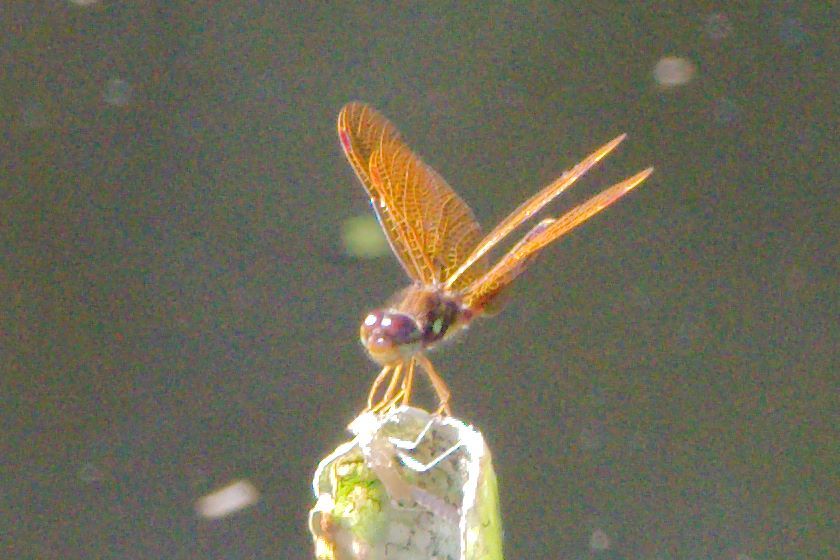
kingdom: Animalia
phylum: Arthropoda
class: Insecta
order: Odonata
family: Libellulidae
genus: Perithemis
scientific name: Perithemis tenera
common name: Eastern amberwing
